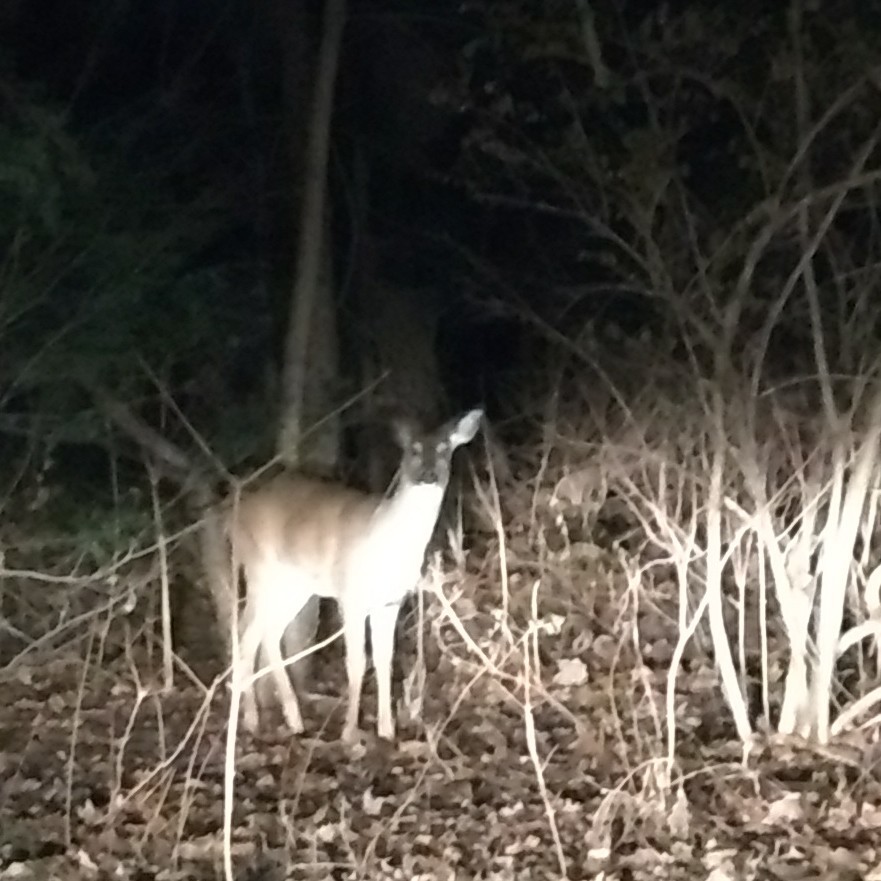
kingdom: Animalia
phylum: Chordata
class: Mammalia
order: Artiodactyla
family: Cervidae
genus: Odocoileus
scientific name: Odocoileus virginianus
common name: White-tailed deer
